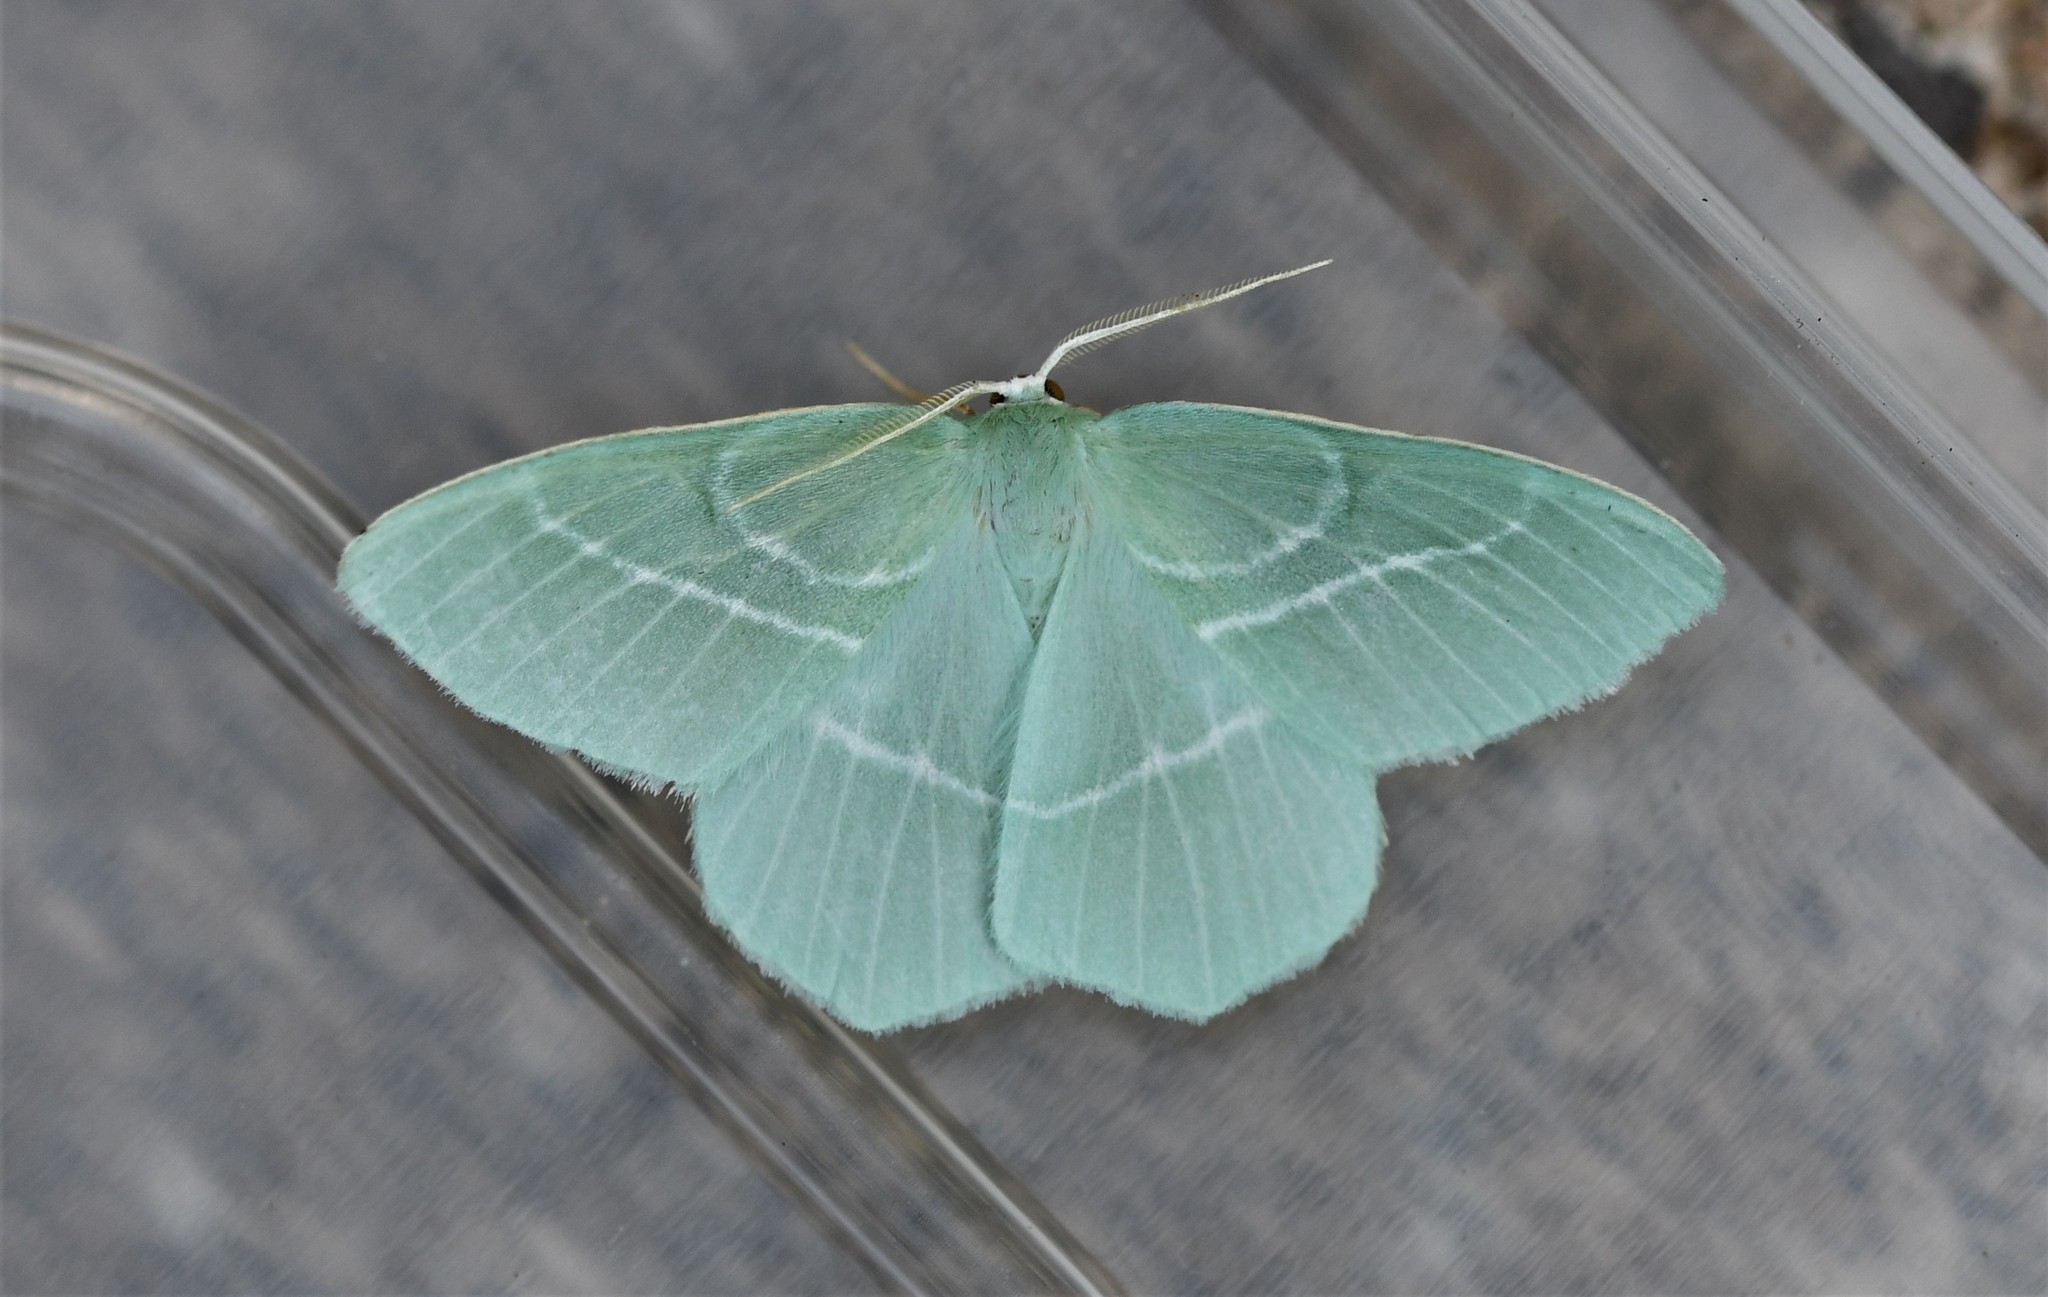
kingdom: Animalia
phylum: Arthropoda
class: Insecta
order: Lepidoptera
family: Geometridae
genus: Hemistola
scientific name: Hemistola chrysoprasaria
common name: Small emerald
